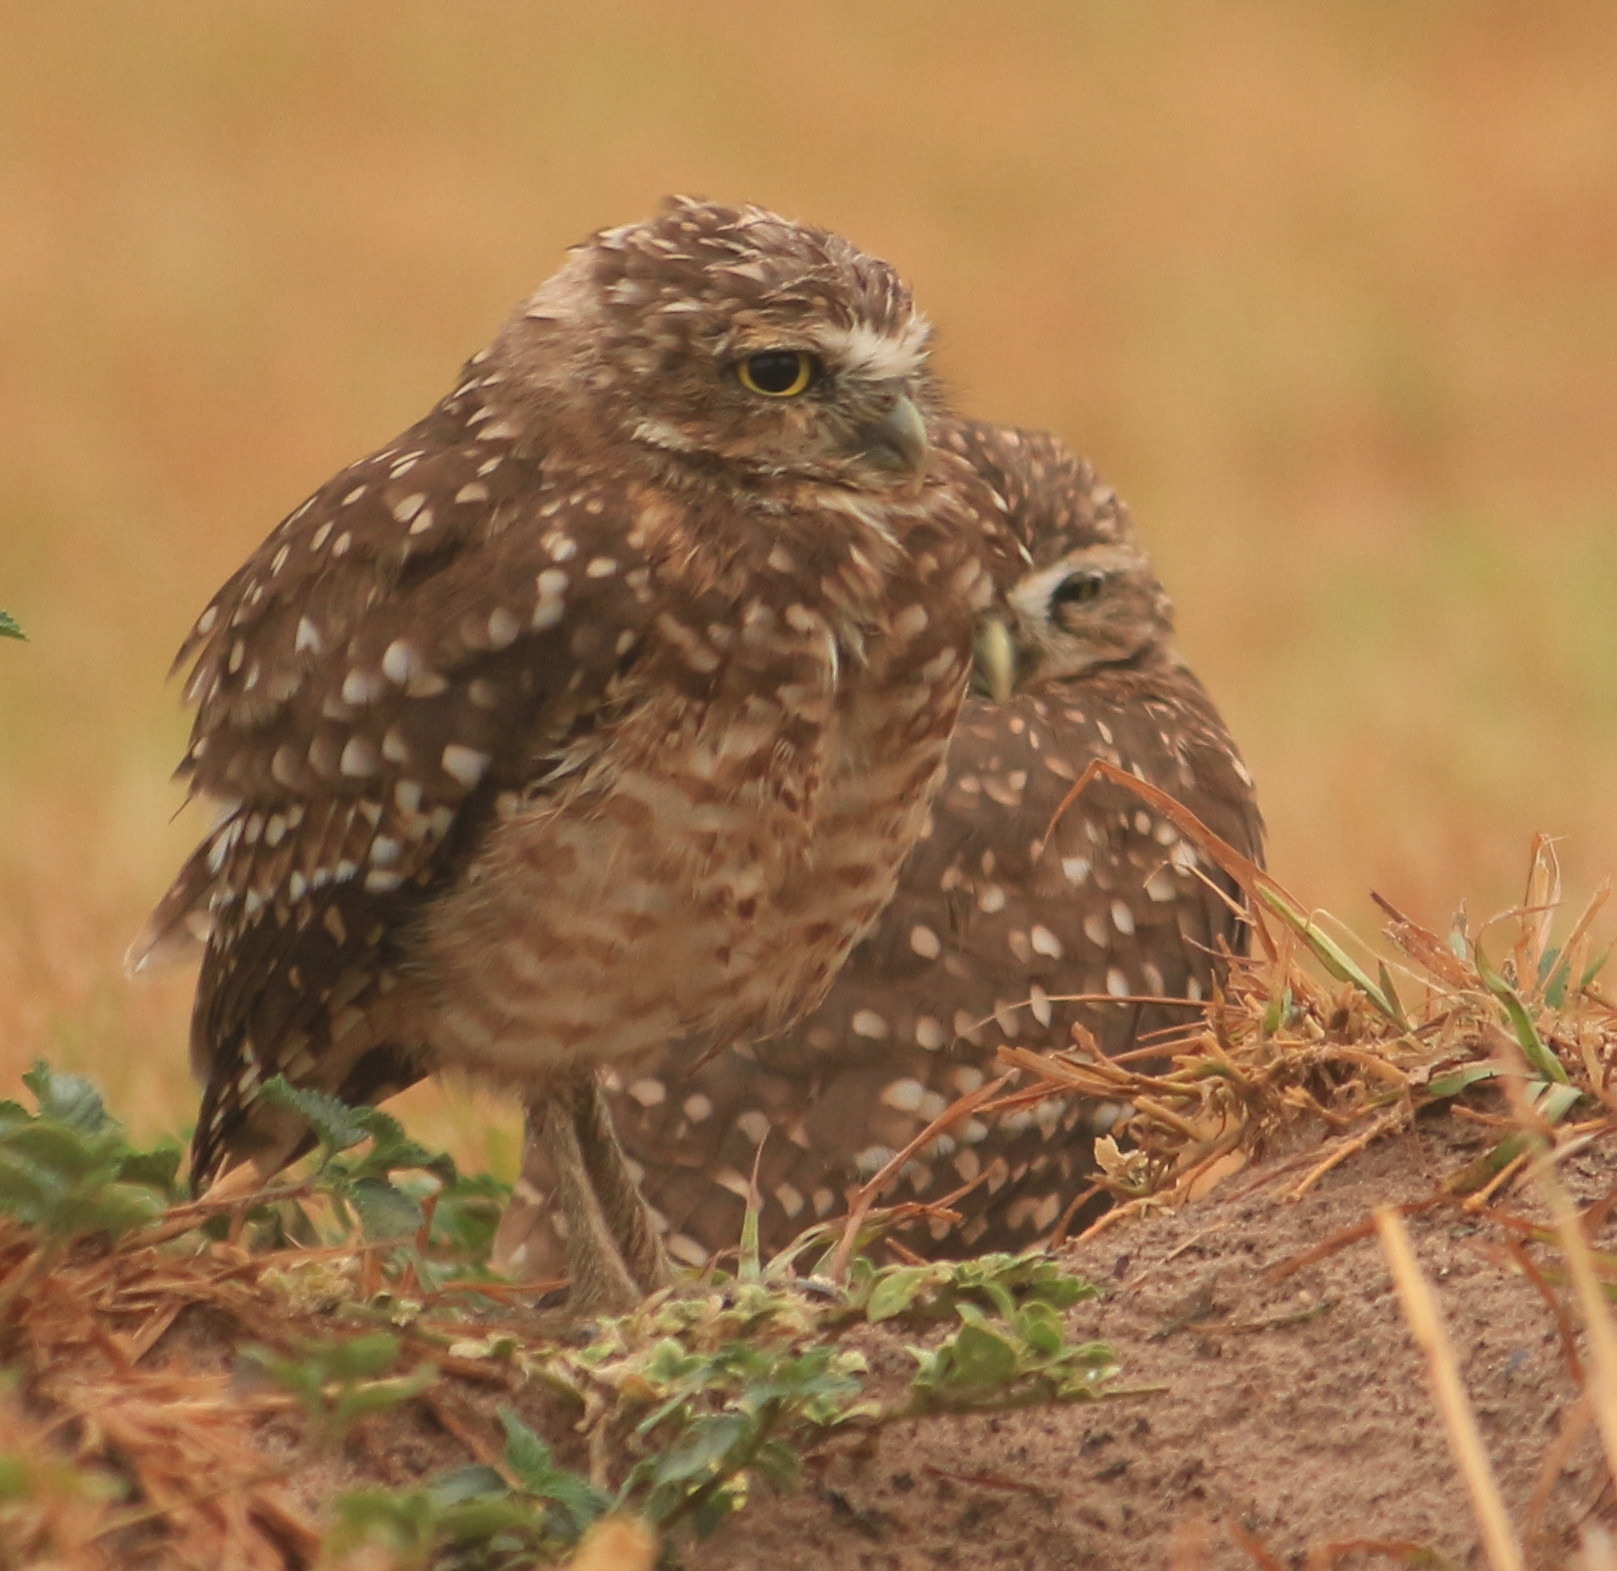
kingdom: Animalia
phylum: Chordata
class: Aves
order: Strigiformes
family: Strigidae
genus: Athene
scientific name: Athene cunicularia
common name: Burrowing owl
